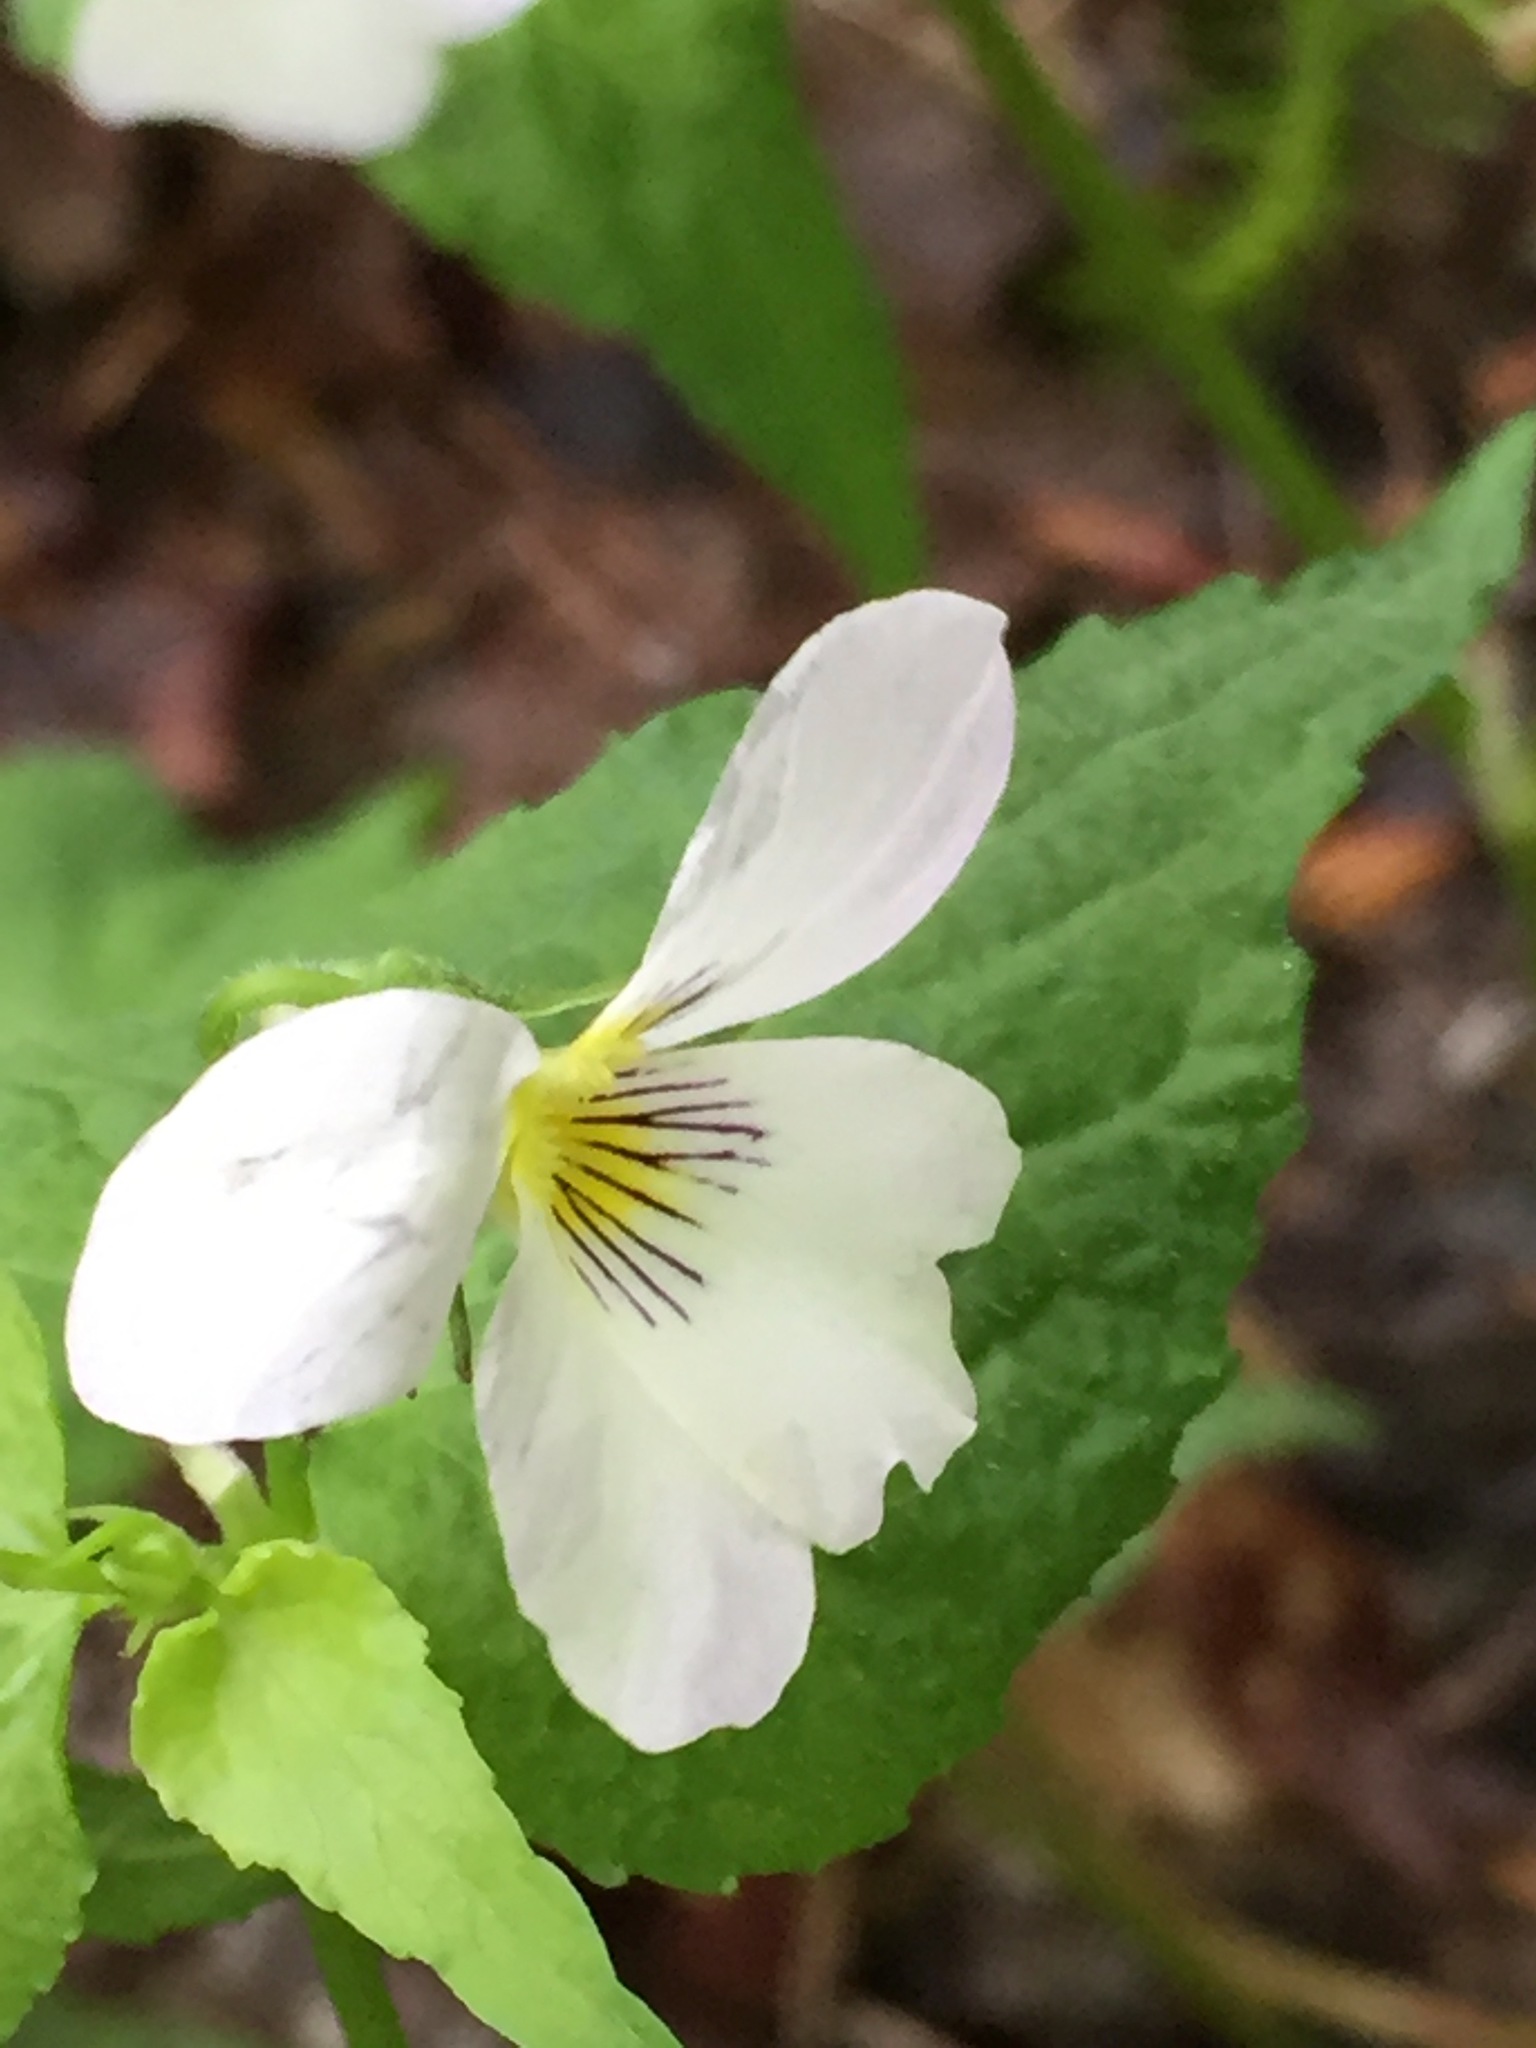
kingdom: Plantae
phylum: Tracheophyta
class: Magnoliopsida
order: Malpighiales
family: Violaceae
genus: Viola
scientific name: Viola canadensis
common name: Canada violet
